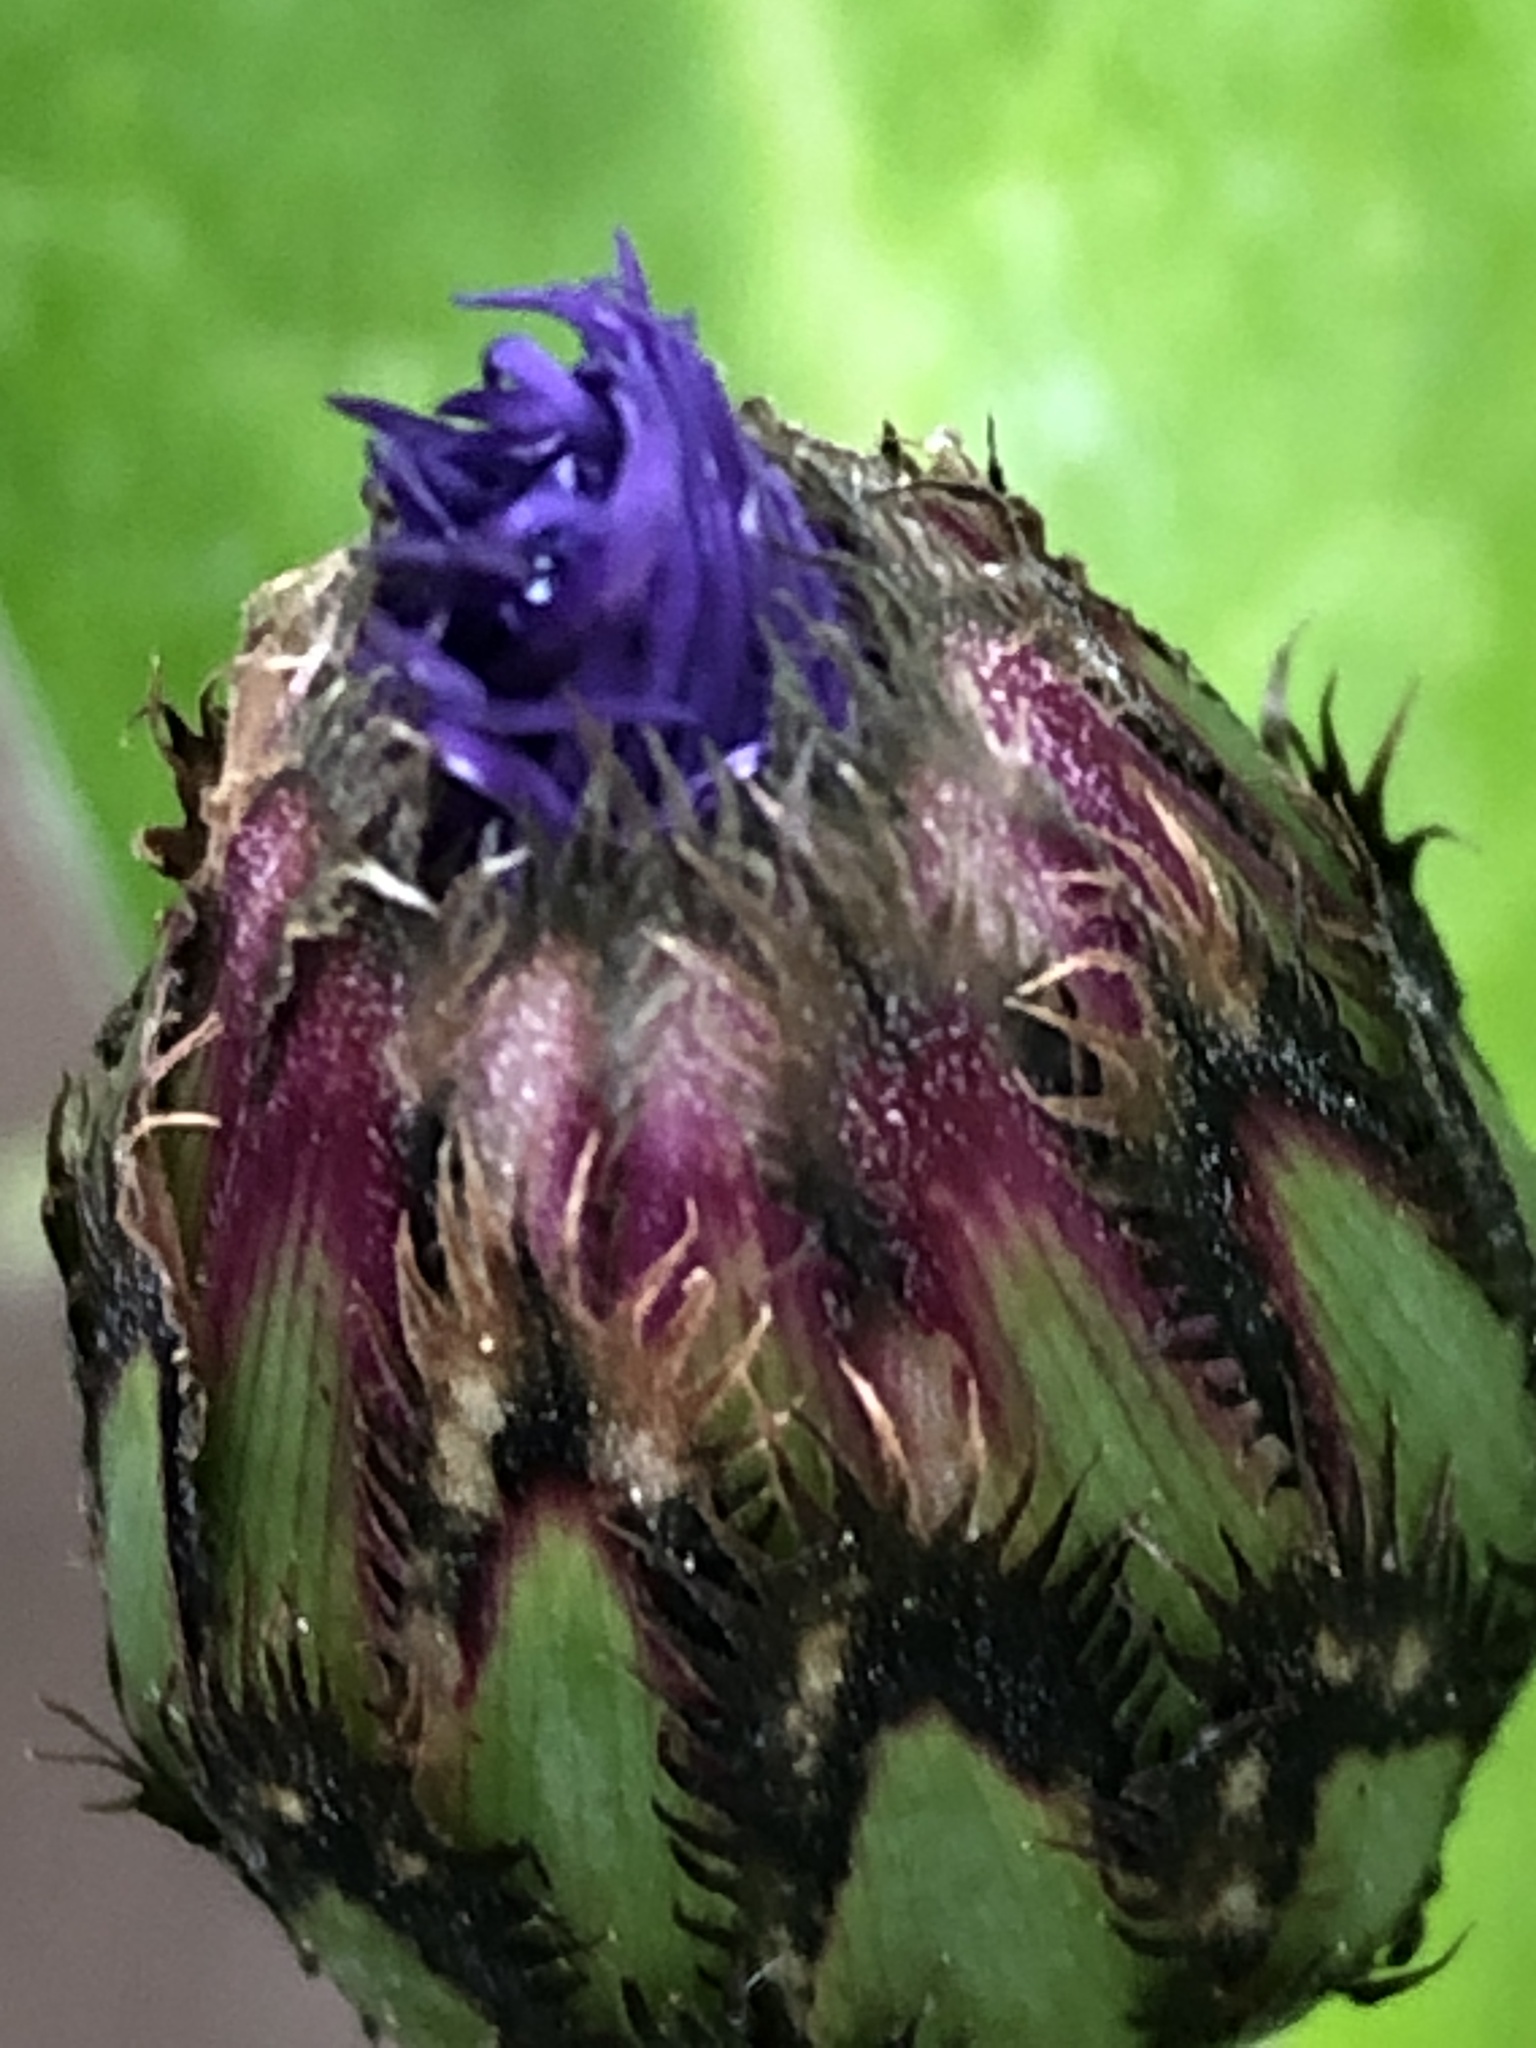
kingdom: Plantae
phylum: Tracheophyta
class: Magnoliopsida
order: Asterales
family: Asteraceae
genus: Centaurea
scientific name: Centaurea montana
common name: Perennial cornflower
